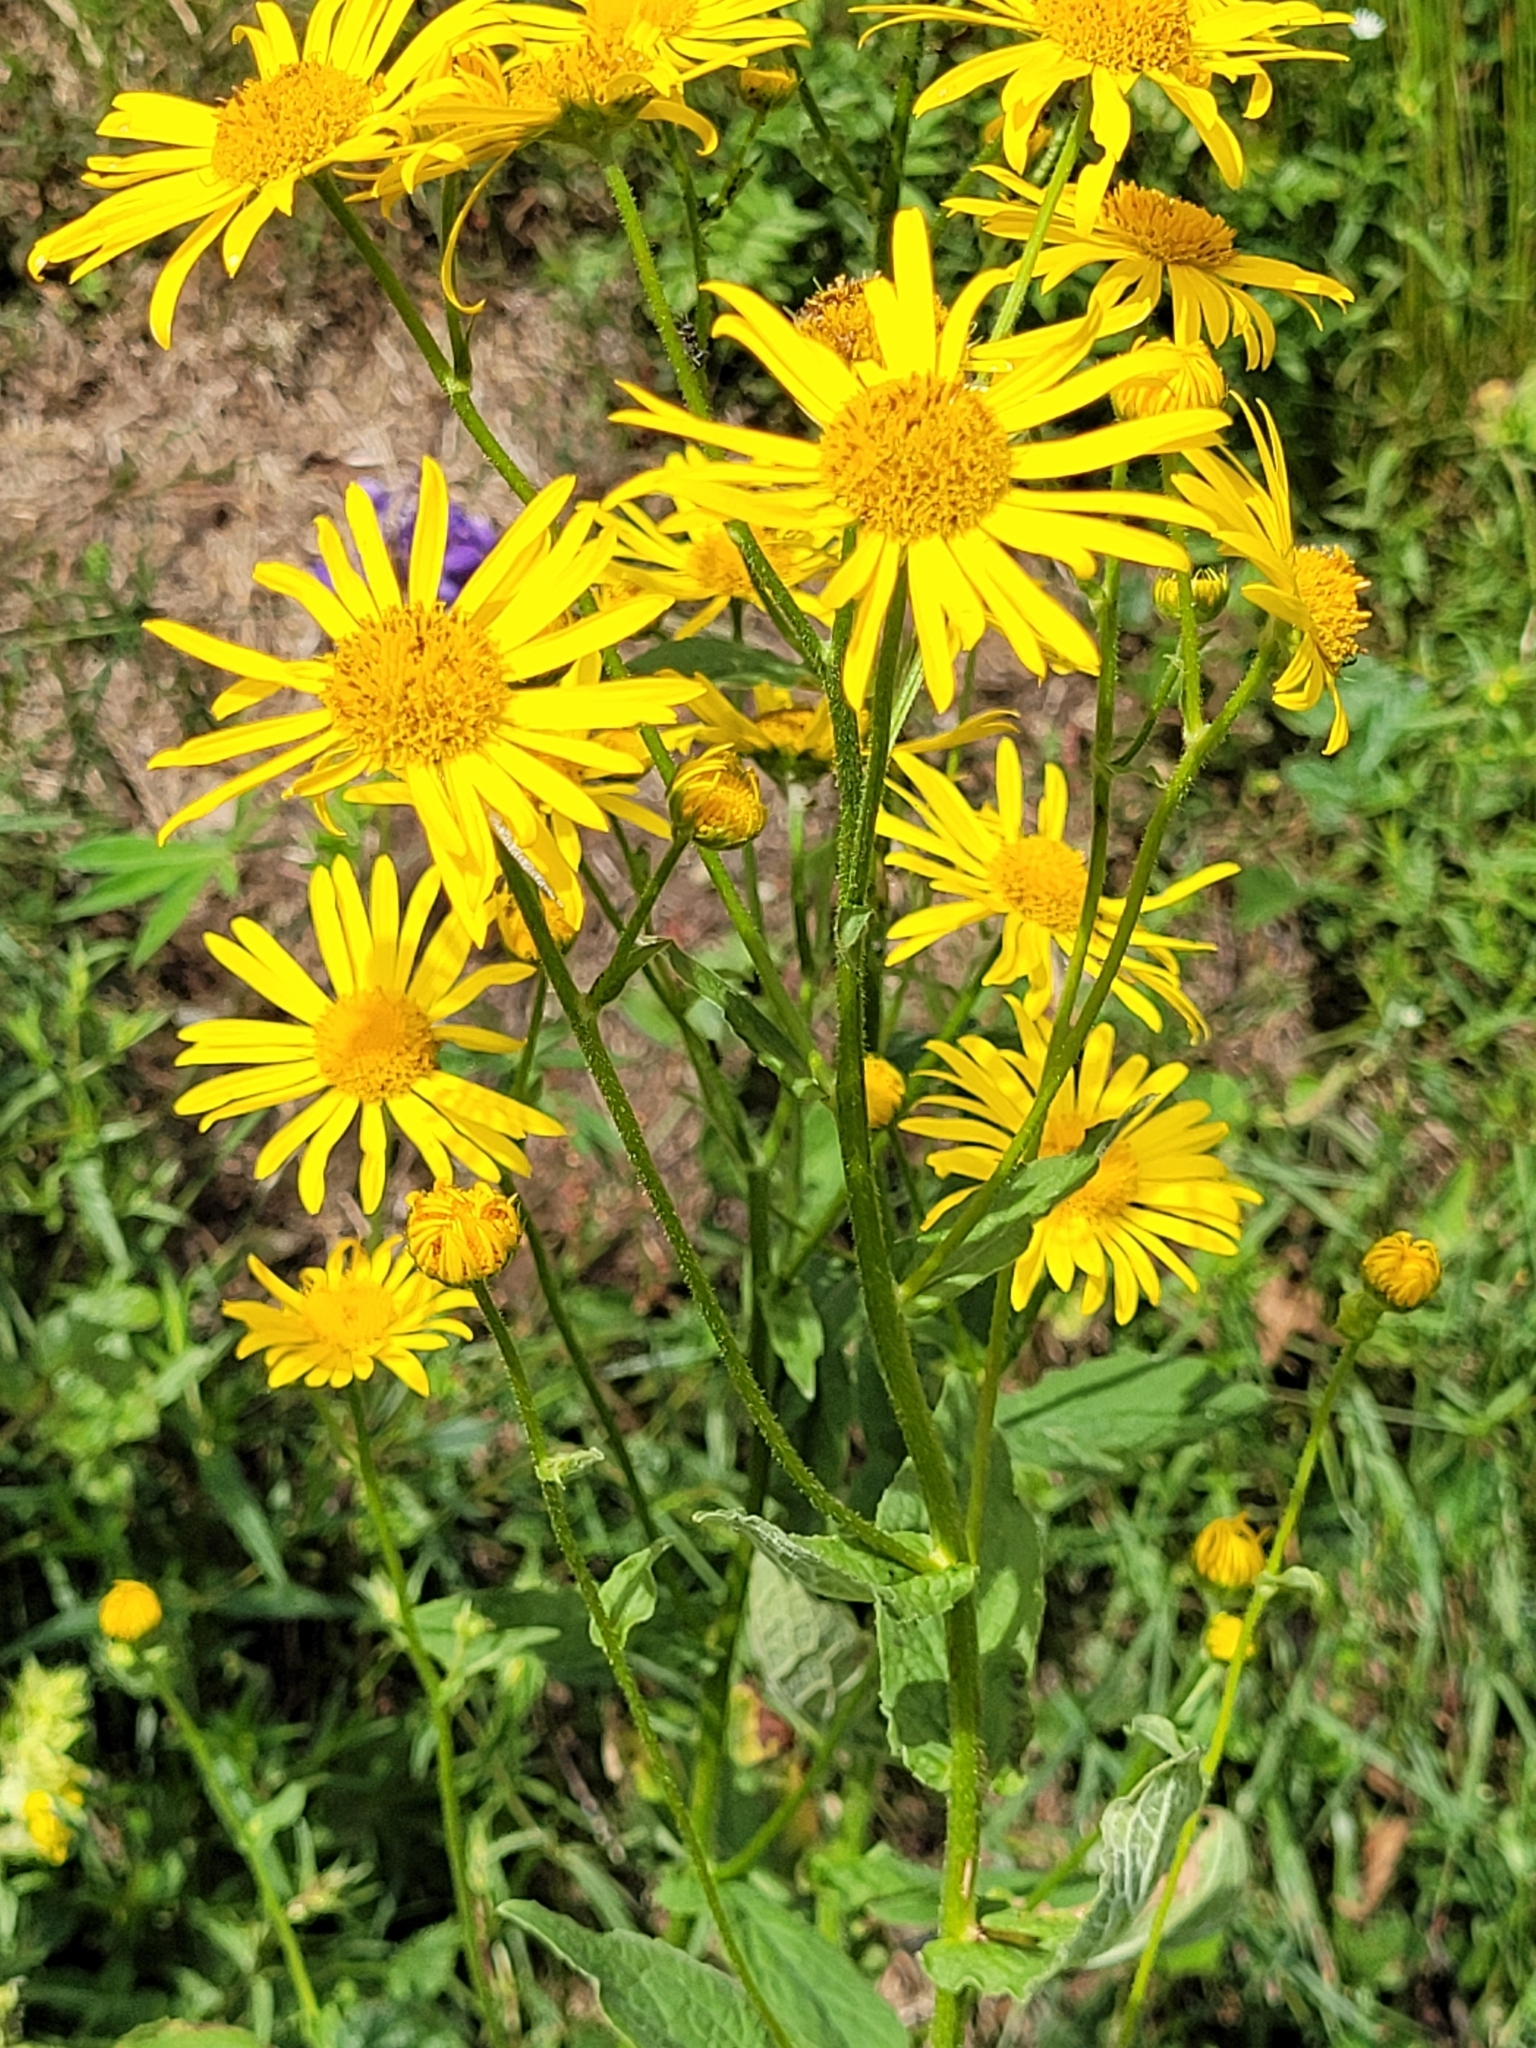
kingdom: Plantae
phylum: Tracheophyta
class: Magnoliopsida
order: Asterales
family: Asteraceae
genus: Doronicum
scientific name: Doronicum austriacum
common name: Austrian leopard's-bane
